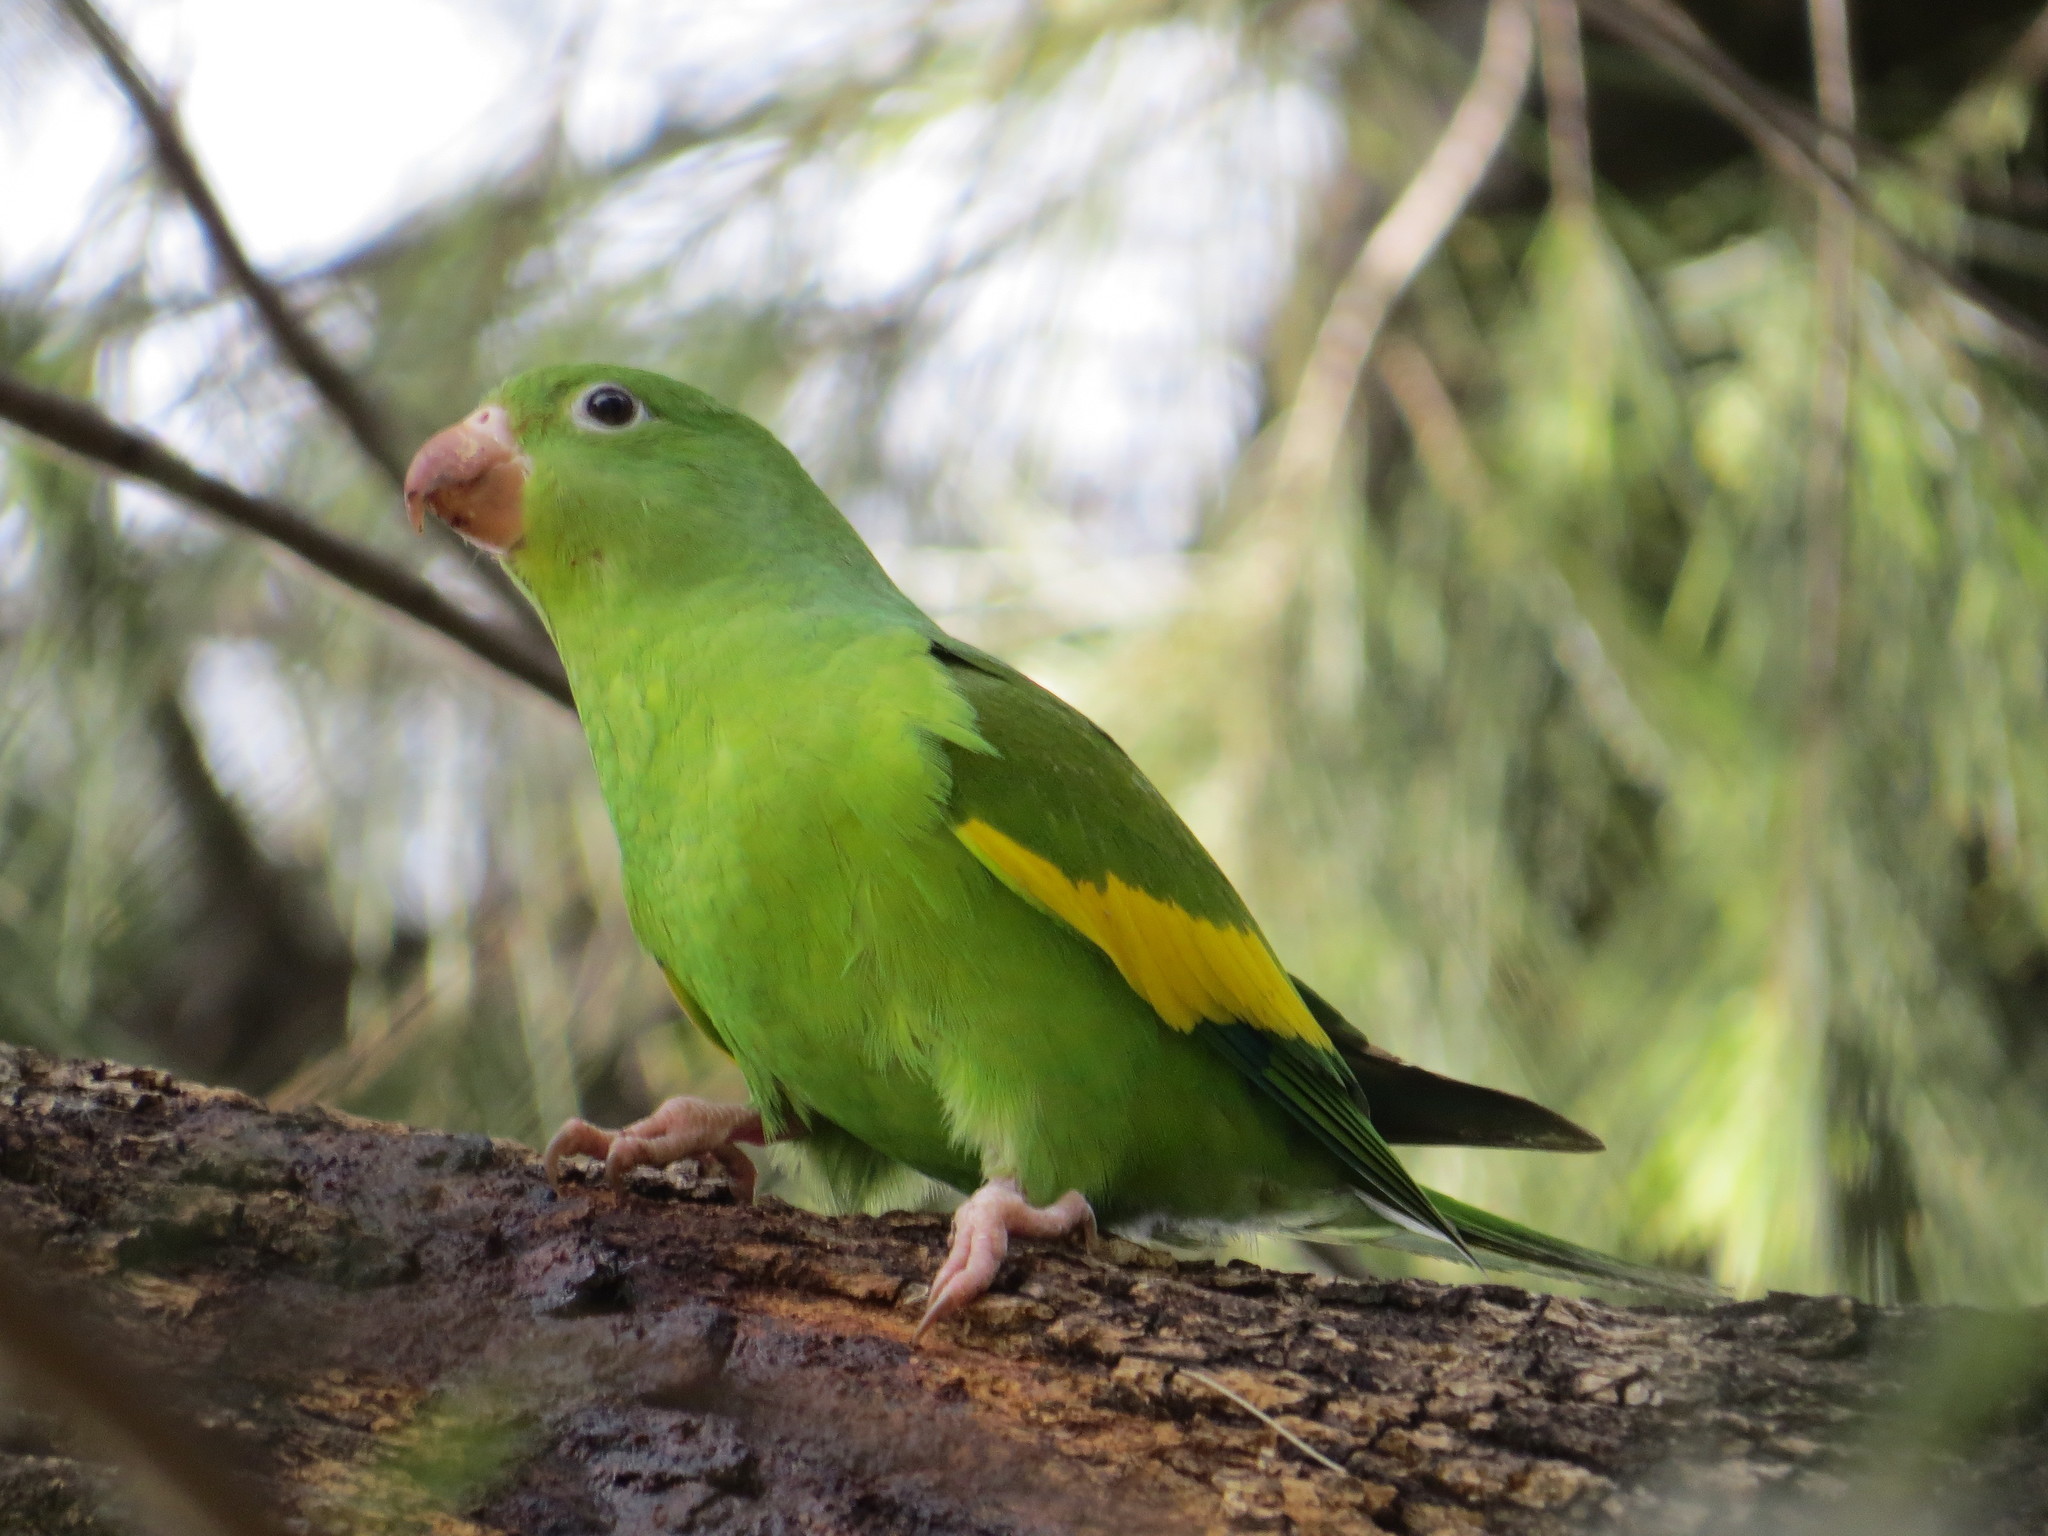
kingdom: Animalia
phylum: Chordata
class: Aves
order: Psittaciformes
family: Psittacidae
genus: Brotogeris
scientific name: Brotogeris chiriri
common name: Yellow-chevroned parakeet
